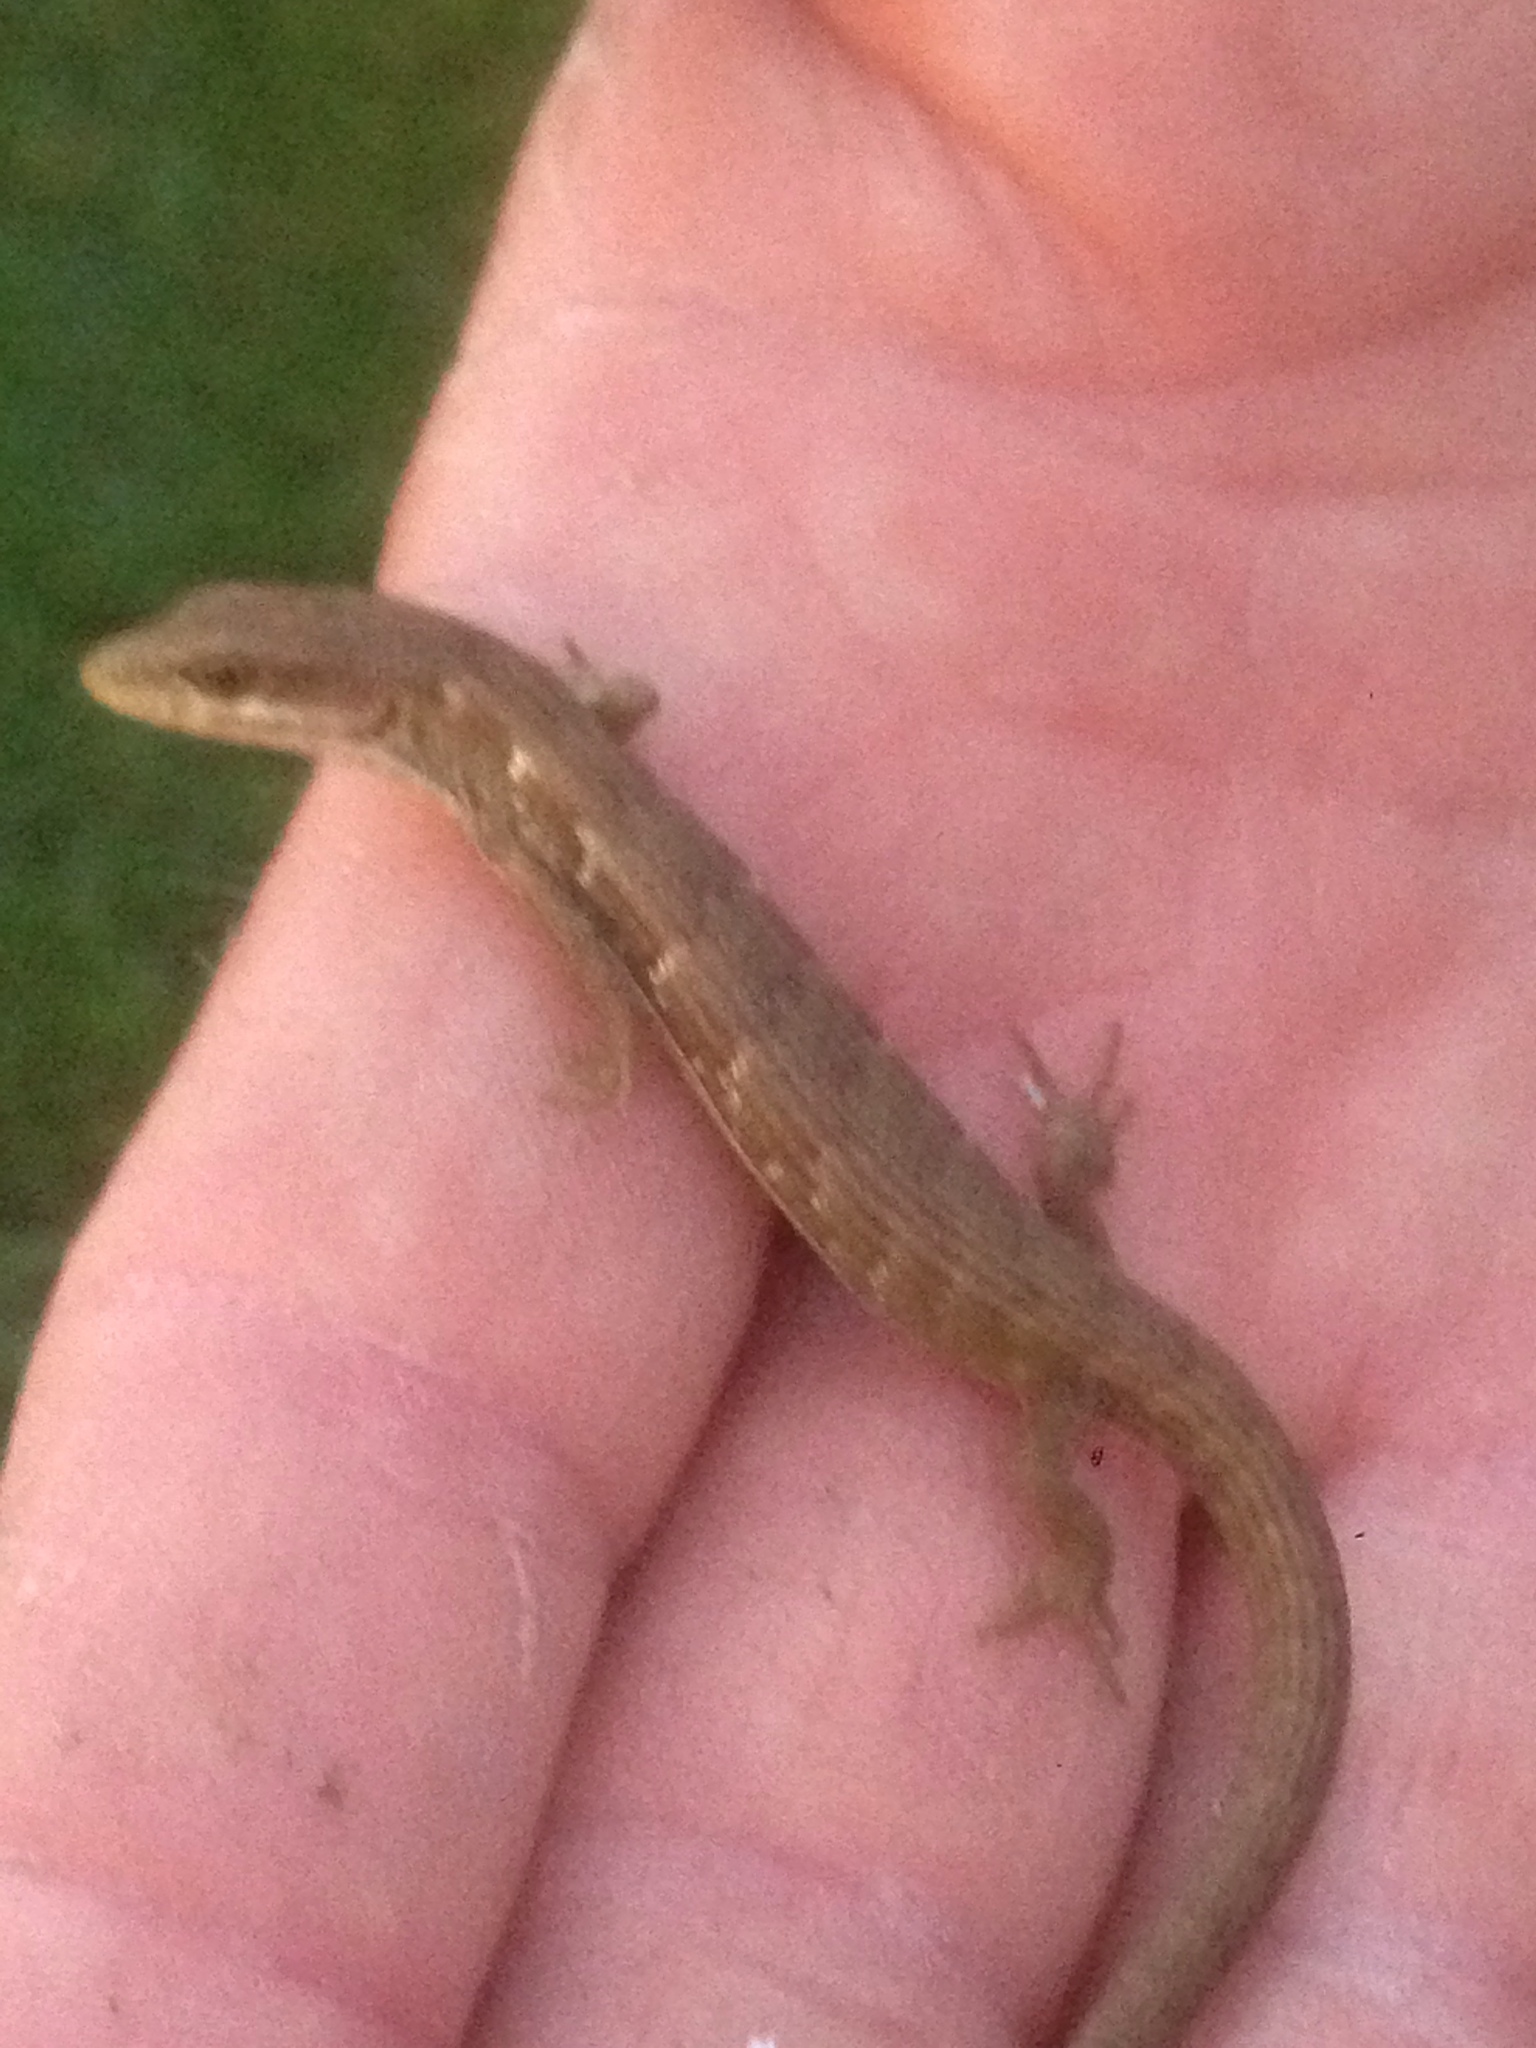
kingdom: Animalia
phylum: Chordata
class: Squamata
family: Anguidae
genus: Elgaria
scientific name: Elgaria multicarinata
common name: Southern alligator lizard
